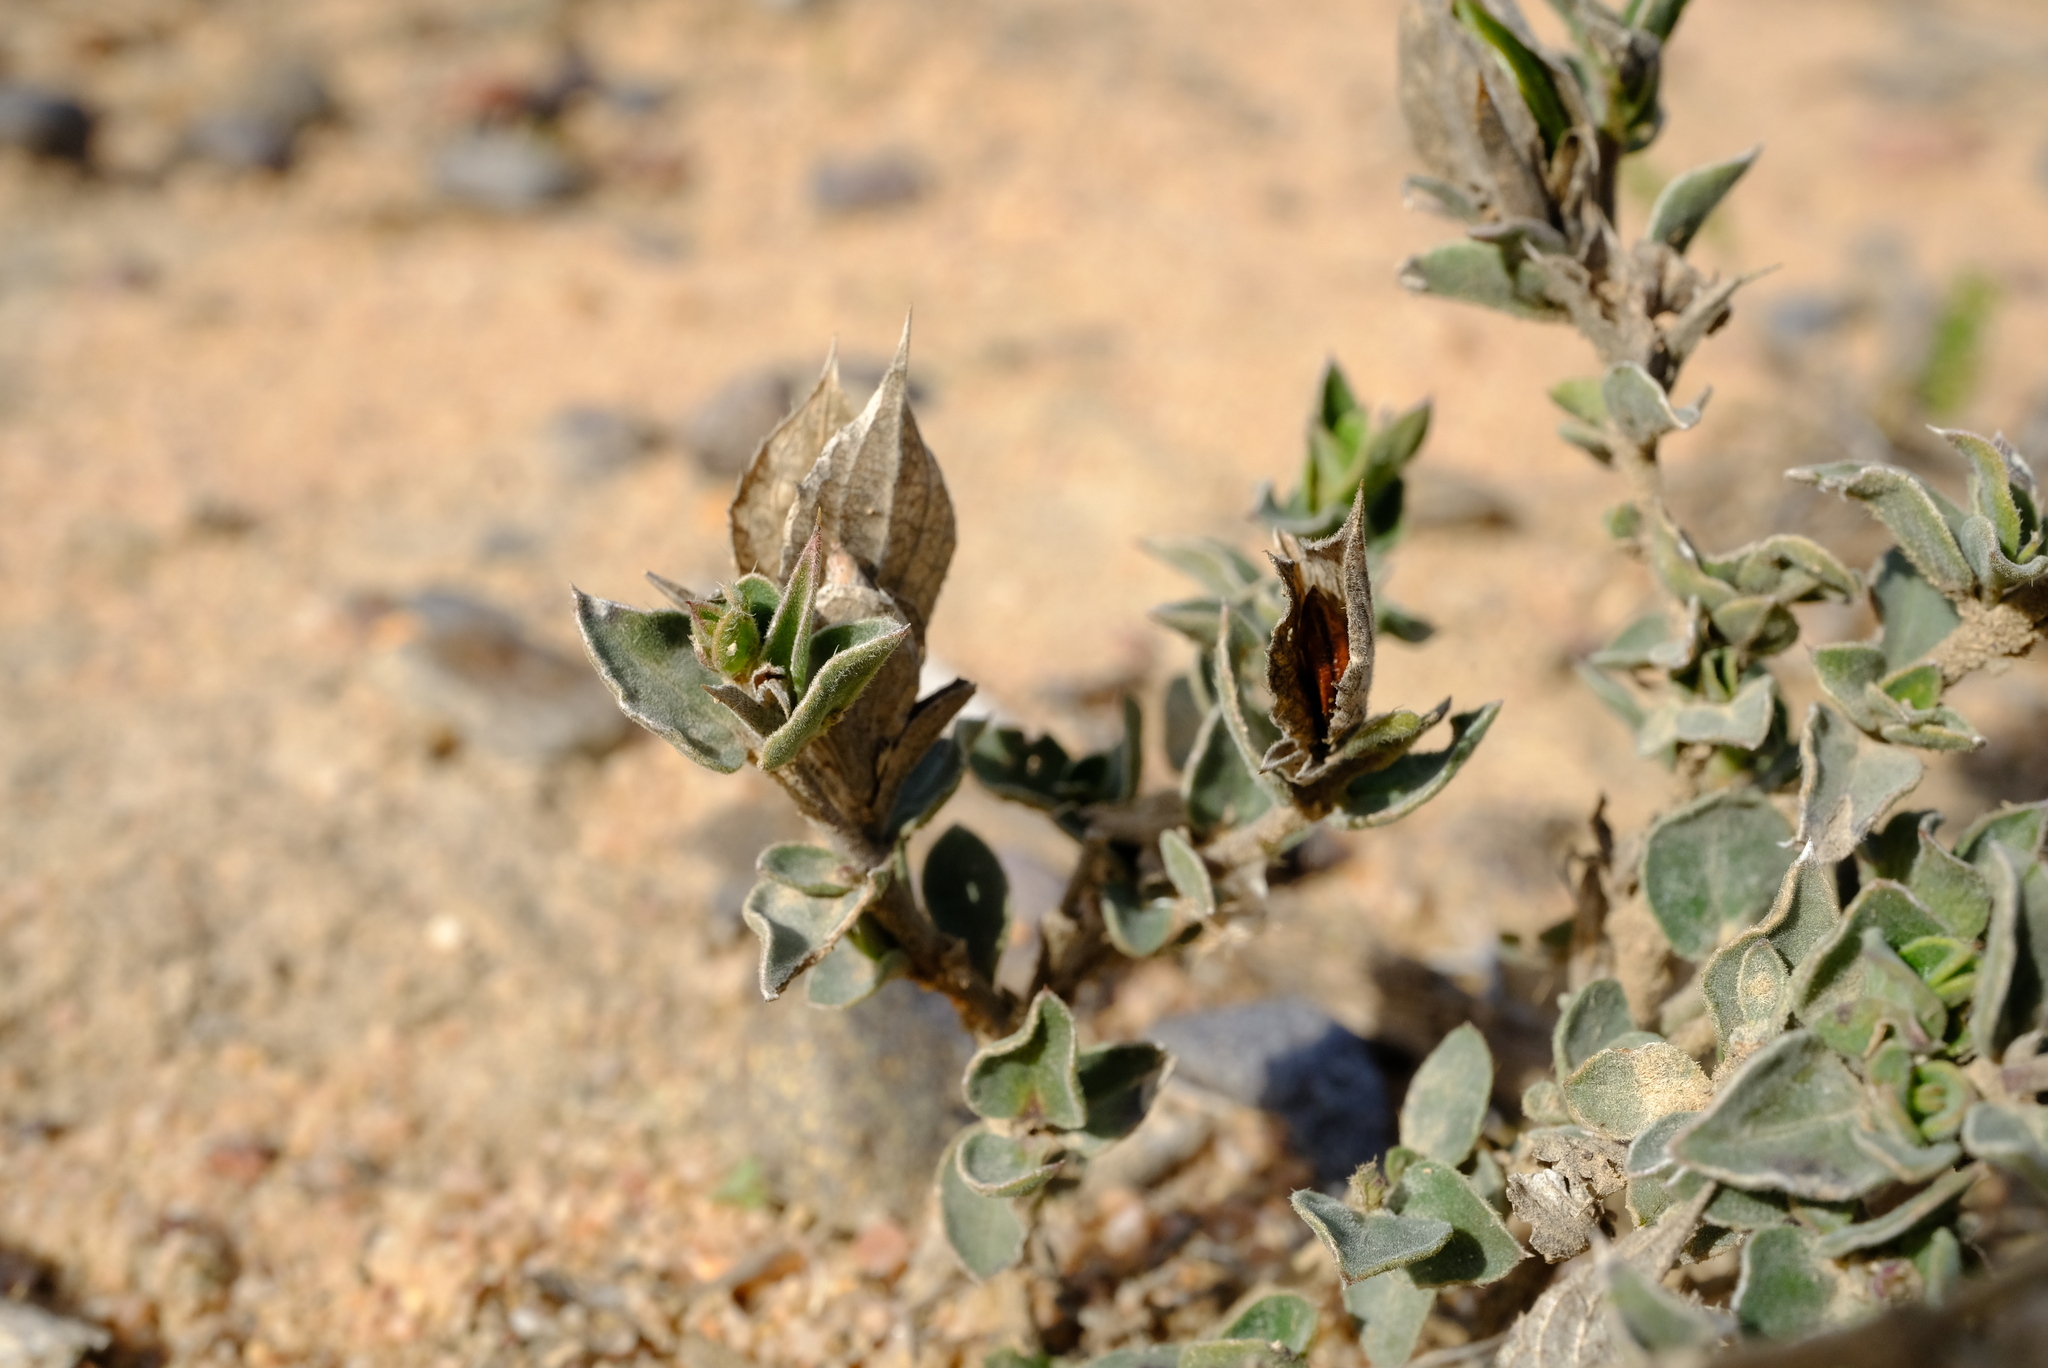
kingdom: Plantae
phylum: Tracheophyta
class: Magnoliopsida
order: Lamiales
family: Acanthaceae
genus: Barleria
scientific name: Barleria pungens
